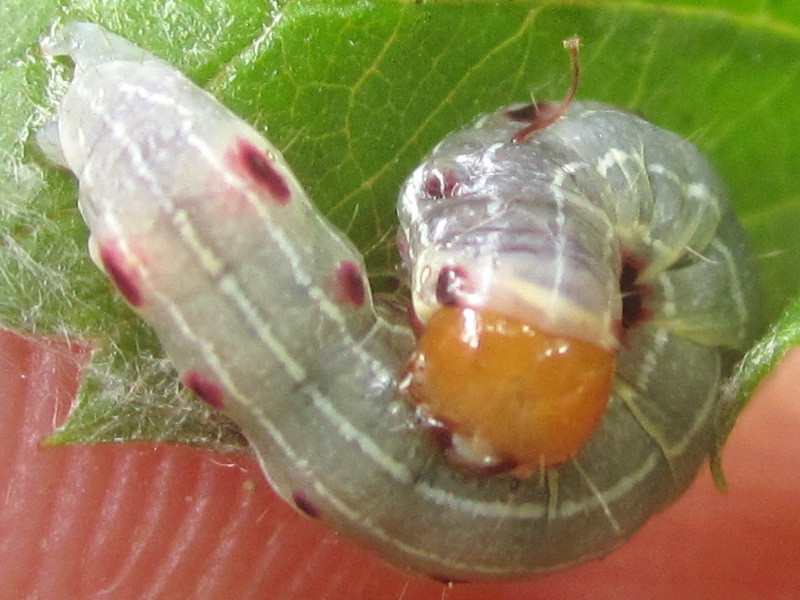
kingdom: Animalia
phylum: Arthropoda
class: Insecta
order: Lepidoptera
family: Noctuidae
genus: Achatia
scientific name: Achatia confusa
